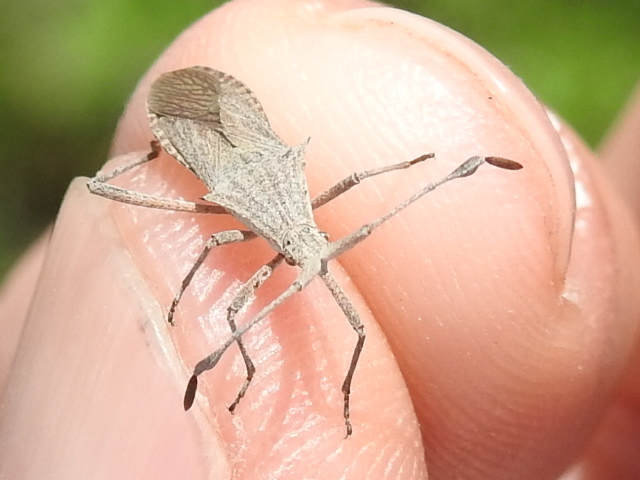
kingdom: Animalia
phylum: Arthropoda
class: Insecta
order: Hemiptera
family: Coreidae
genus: Chariesterus
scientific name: Chariesterus antennator
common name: Flat horned coreid
